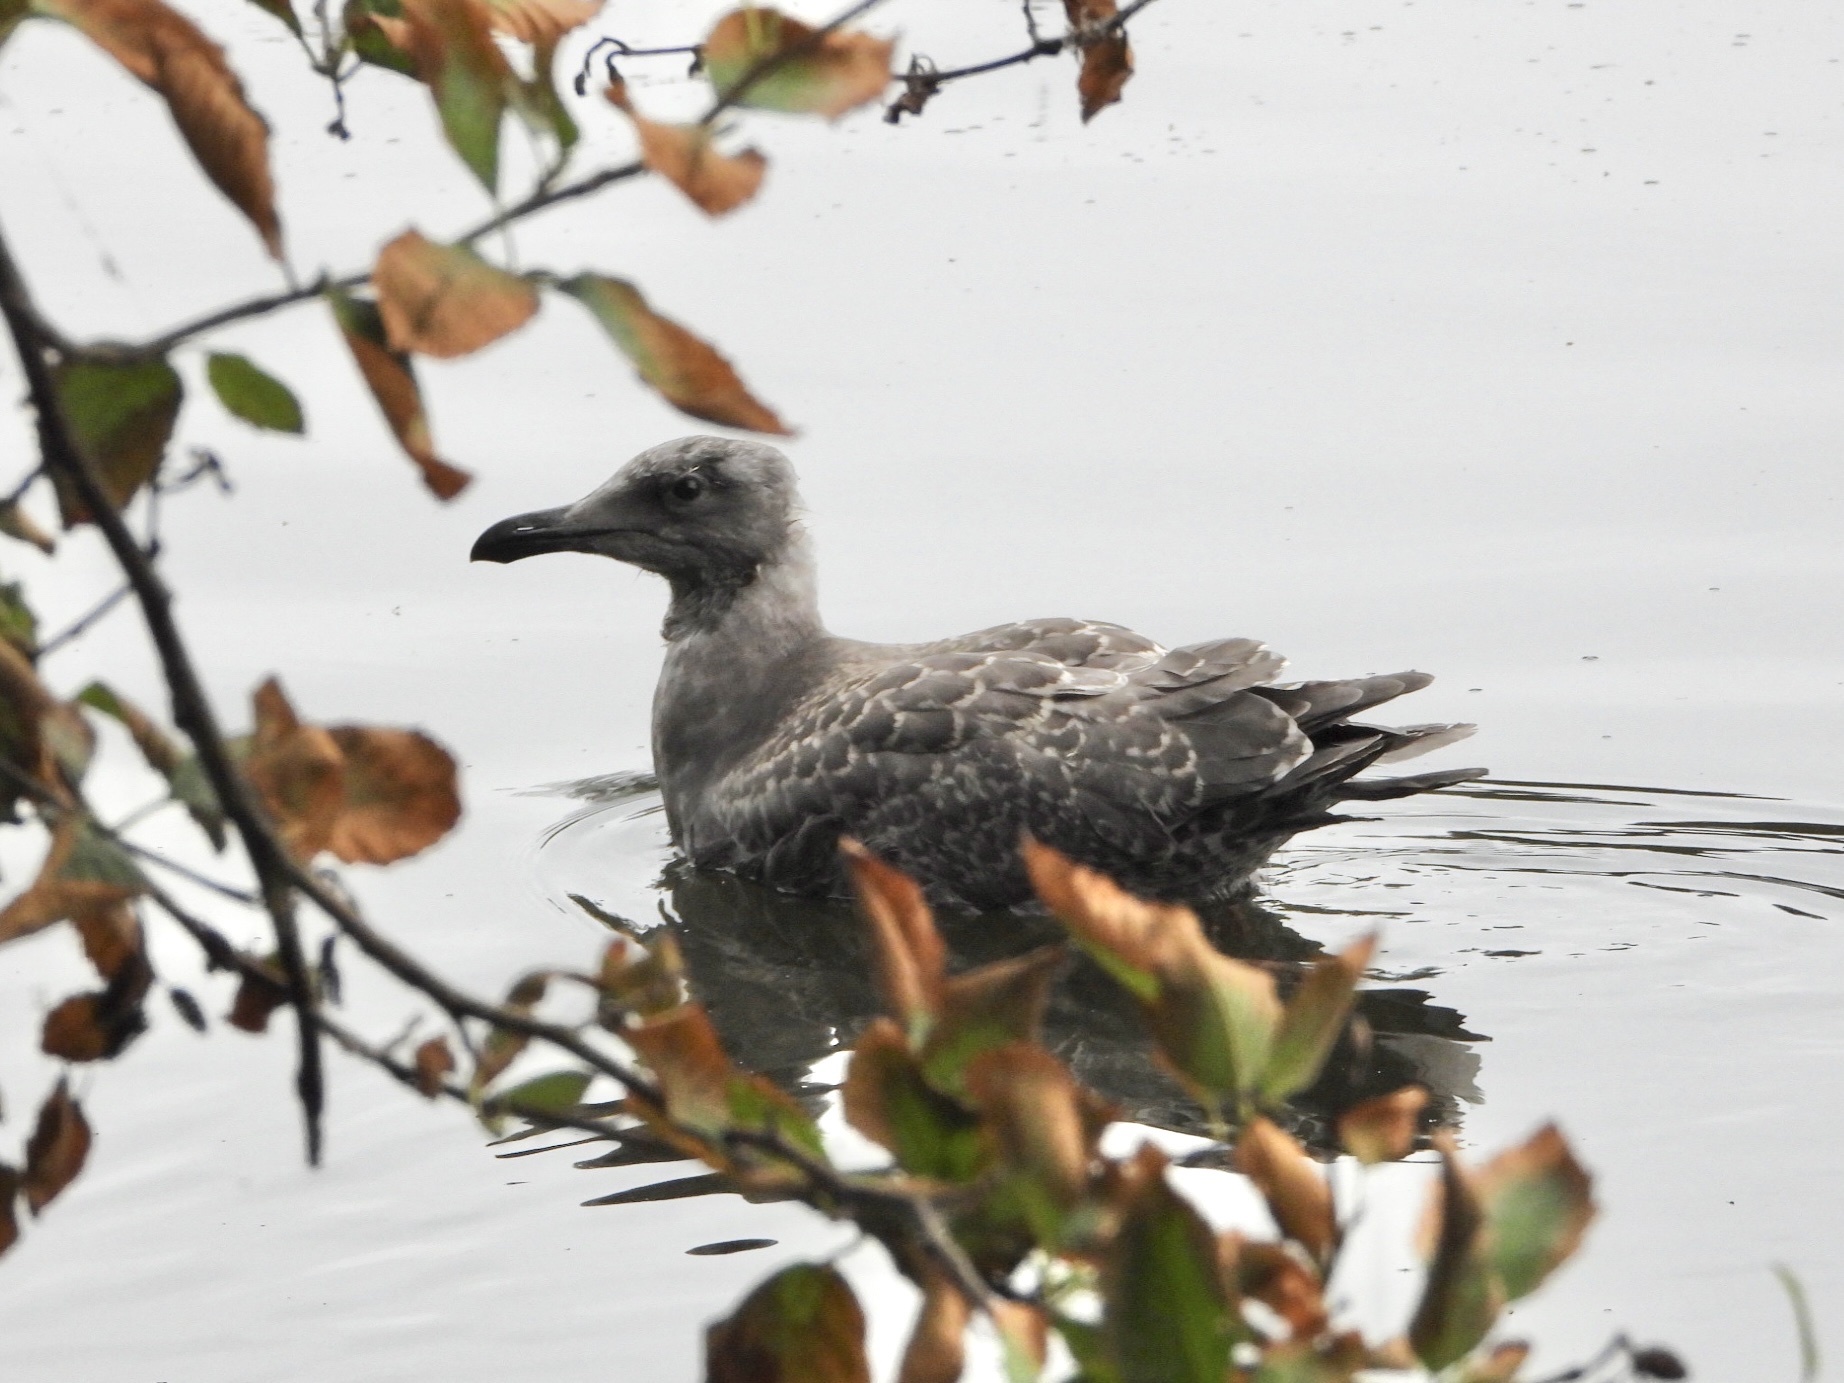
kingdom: Animalia
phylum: Chordata
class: Aves
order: Charadriiformes
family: Laridae
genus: Larus
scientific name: Larus
